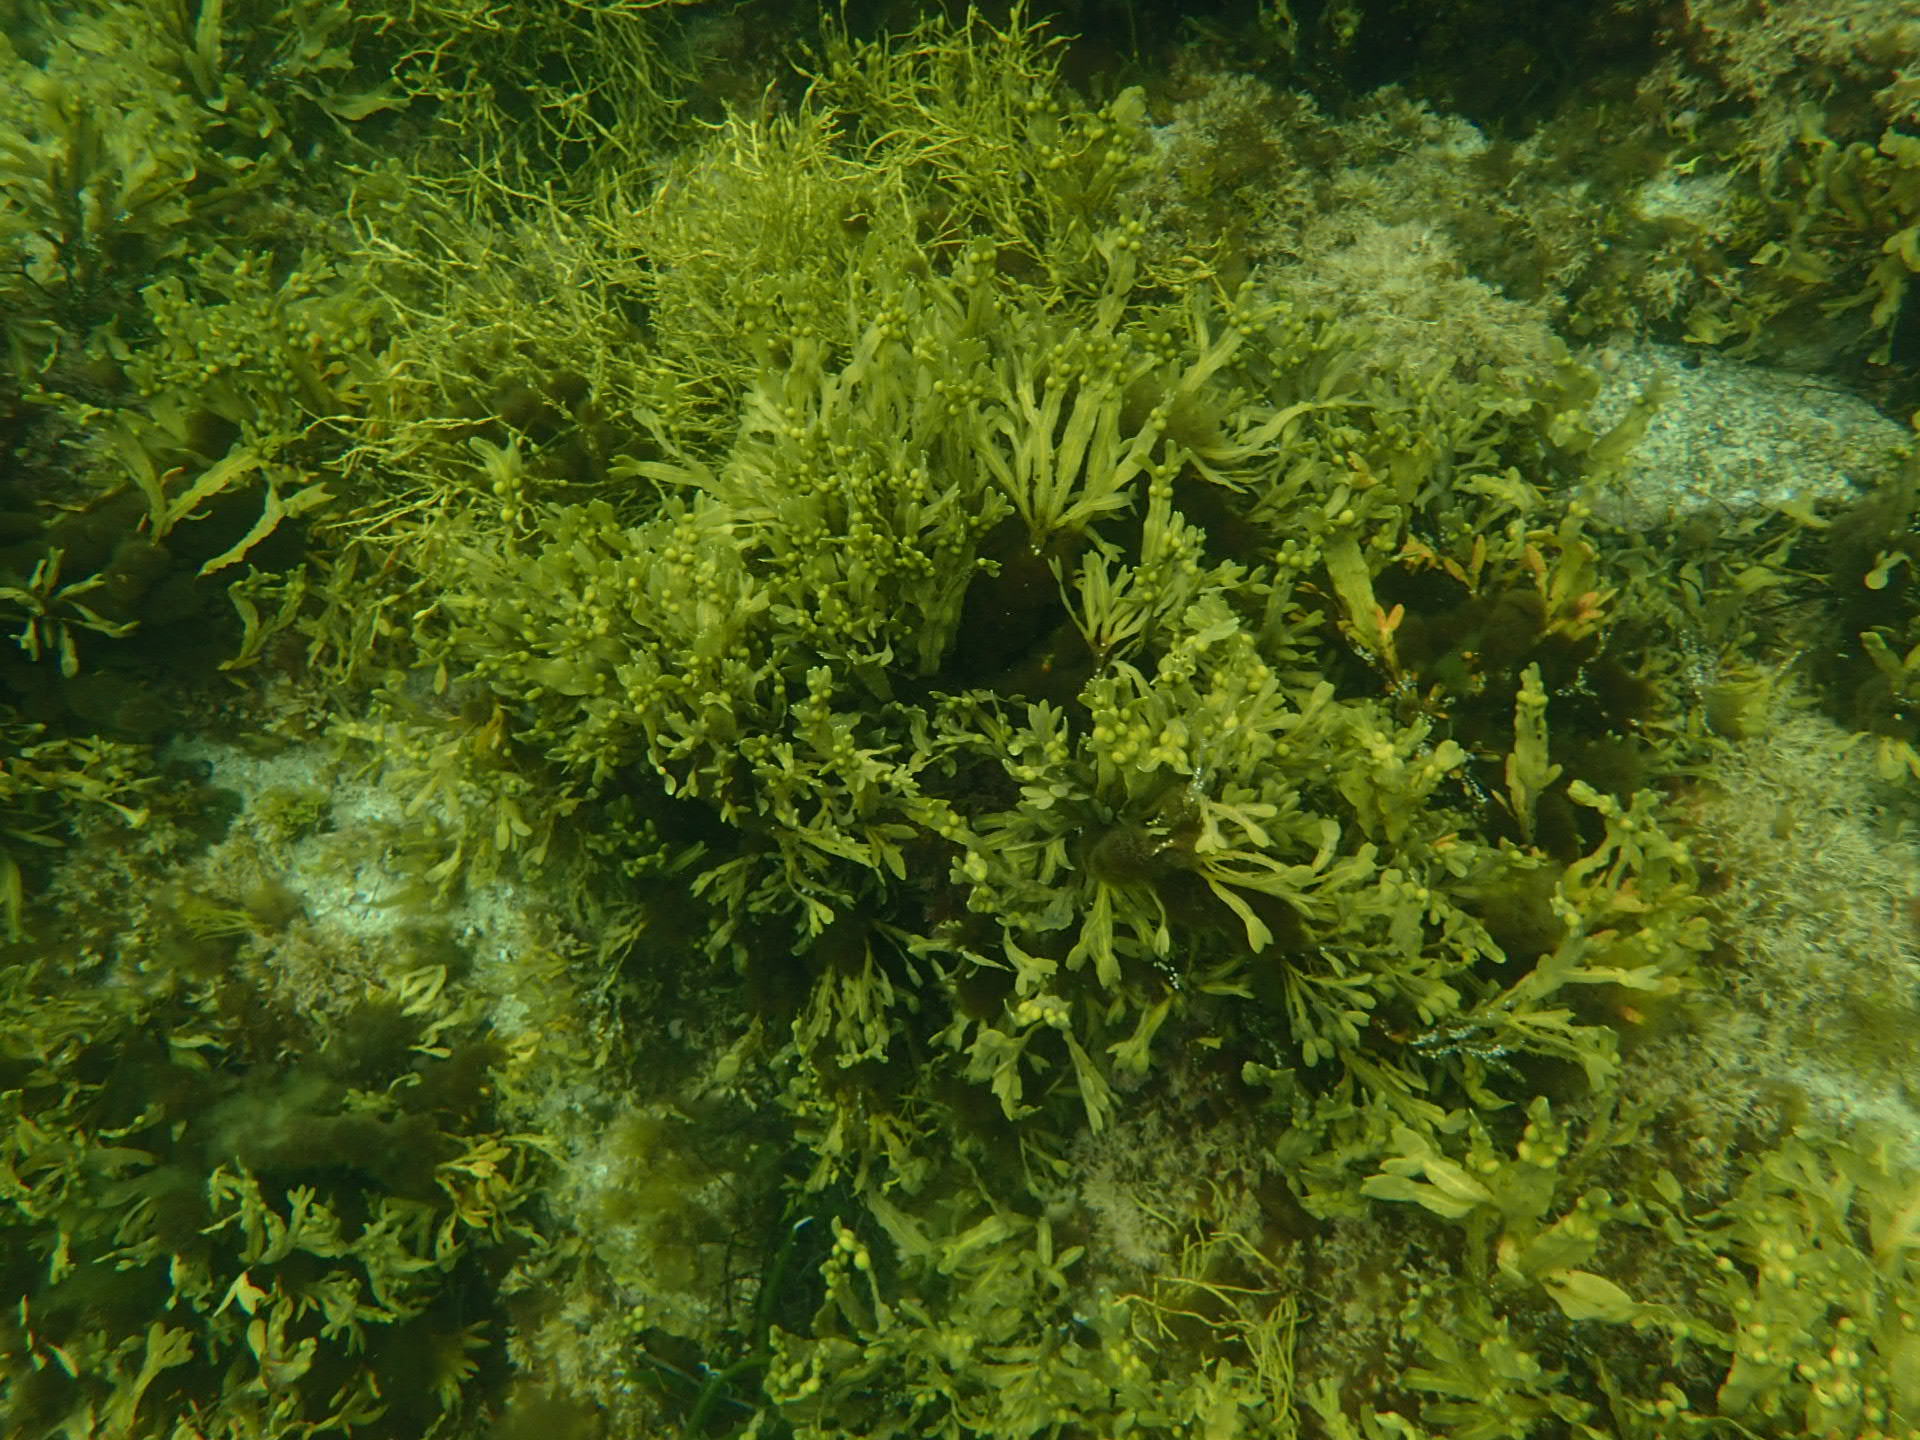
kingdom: Chromista
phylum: Ochrophyta
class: Phaeophyceae
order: Fucales
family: Fucaceae
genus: Fucus
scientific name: Fucus vesiculosus
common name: Bladder wrack
